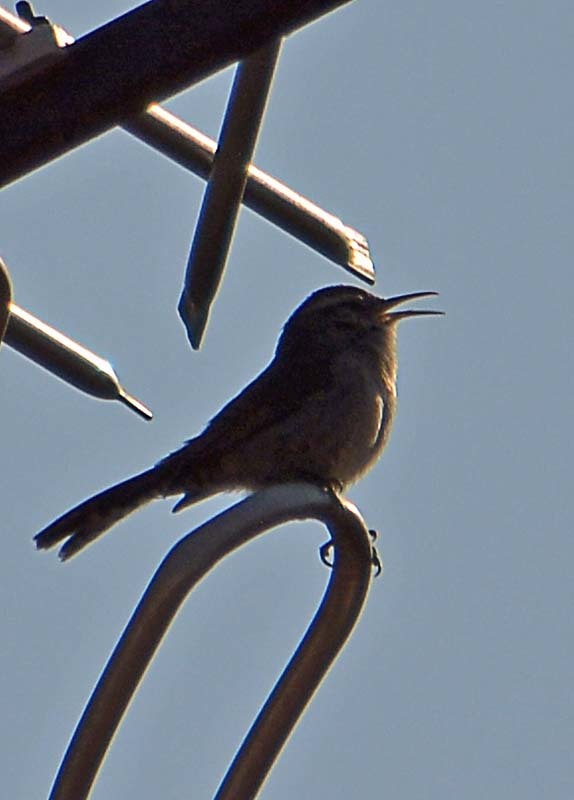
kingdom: Animalia
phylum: Chordata
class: Aves
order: Passeriformes
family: Troglodytidae
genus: Thryomanes
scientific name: Thryomanes bewickii
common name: Bewick's wren
